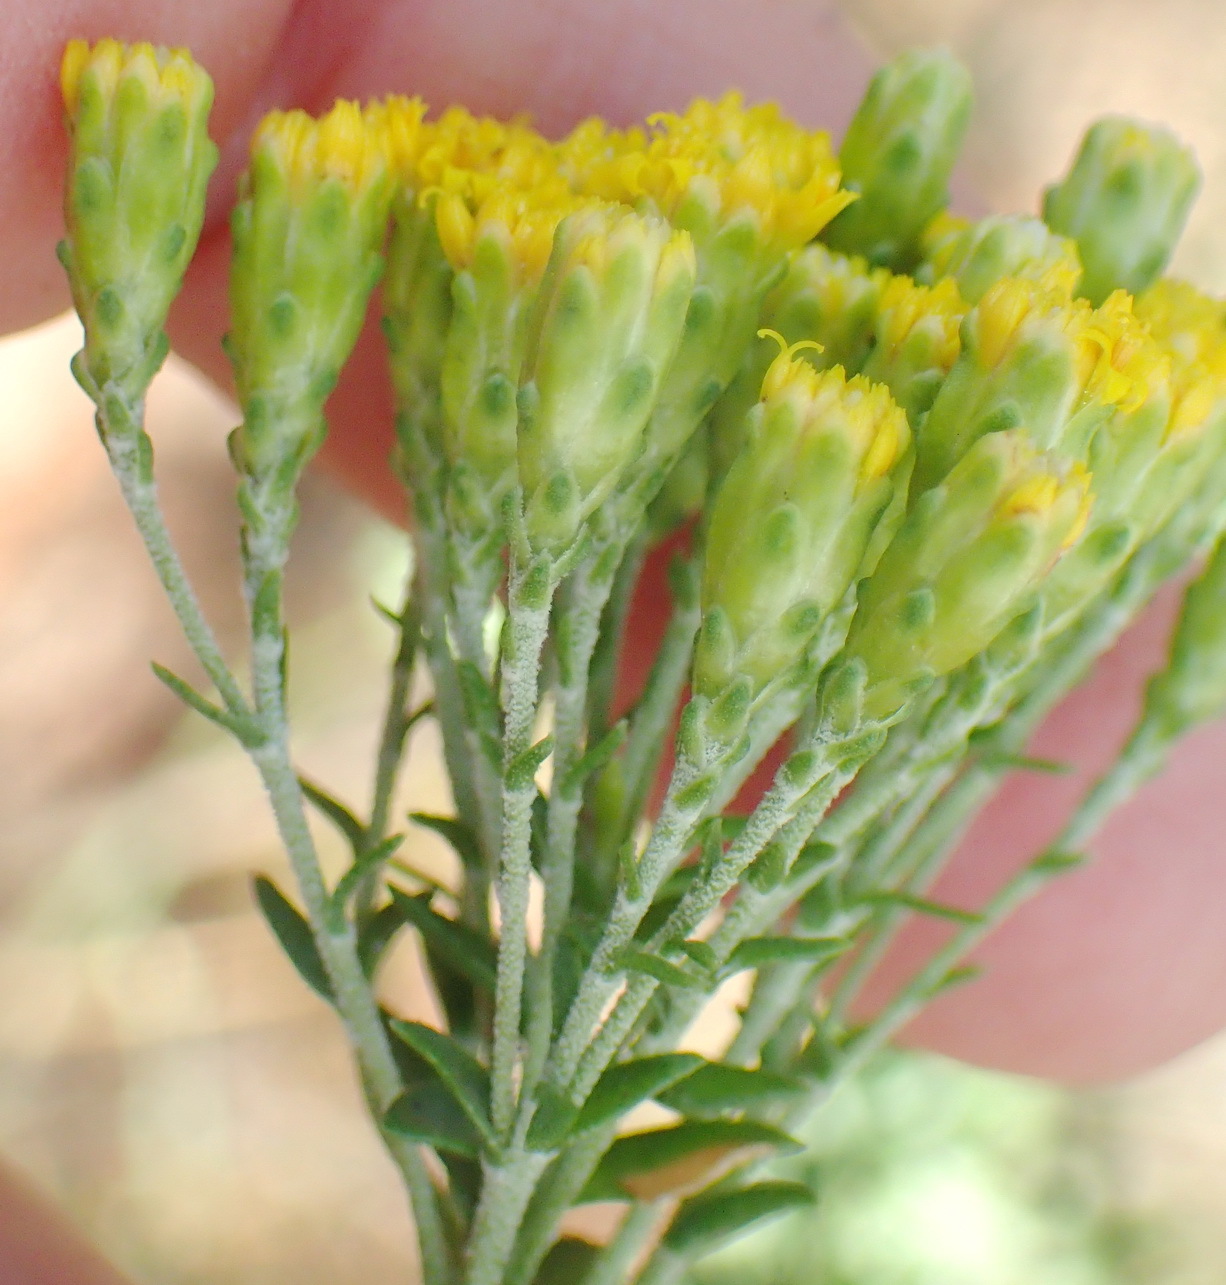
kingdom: Plantae
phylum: Tracheophyta
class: Magnoliopsida
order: Asterales
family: Asteraceae
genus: Athanasia
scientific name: Athanasia trifurcata
